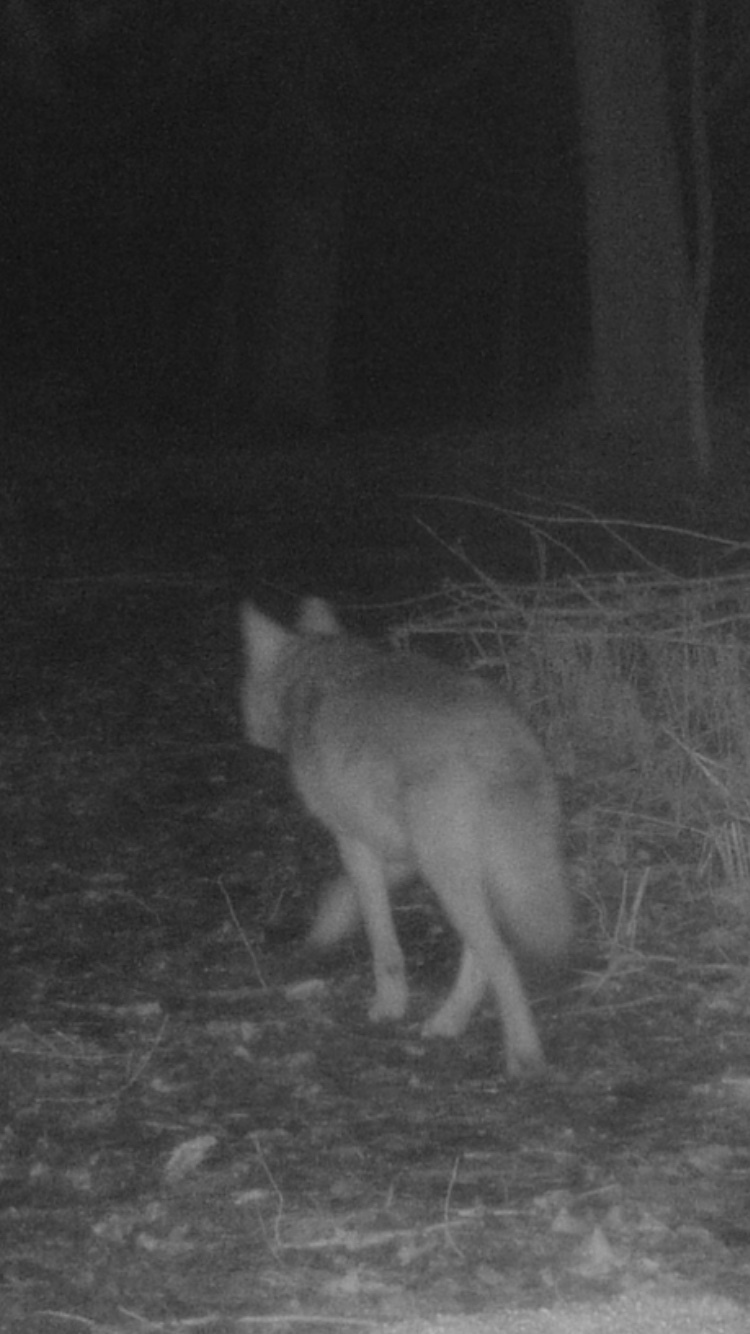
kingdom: Animalia
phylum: Chordata
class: Mammalia
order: Carnivora
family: Canidae
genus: Canis
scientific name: Canis latrans
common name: Coyote
